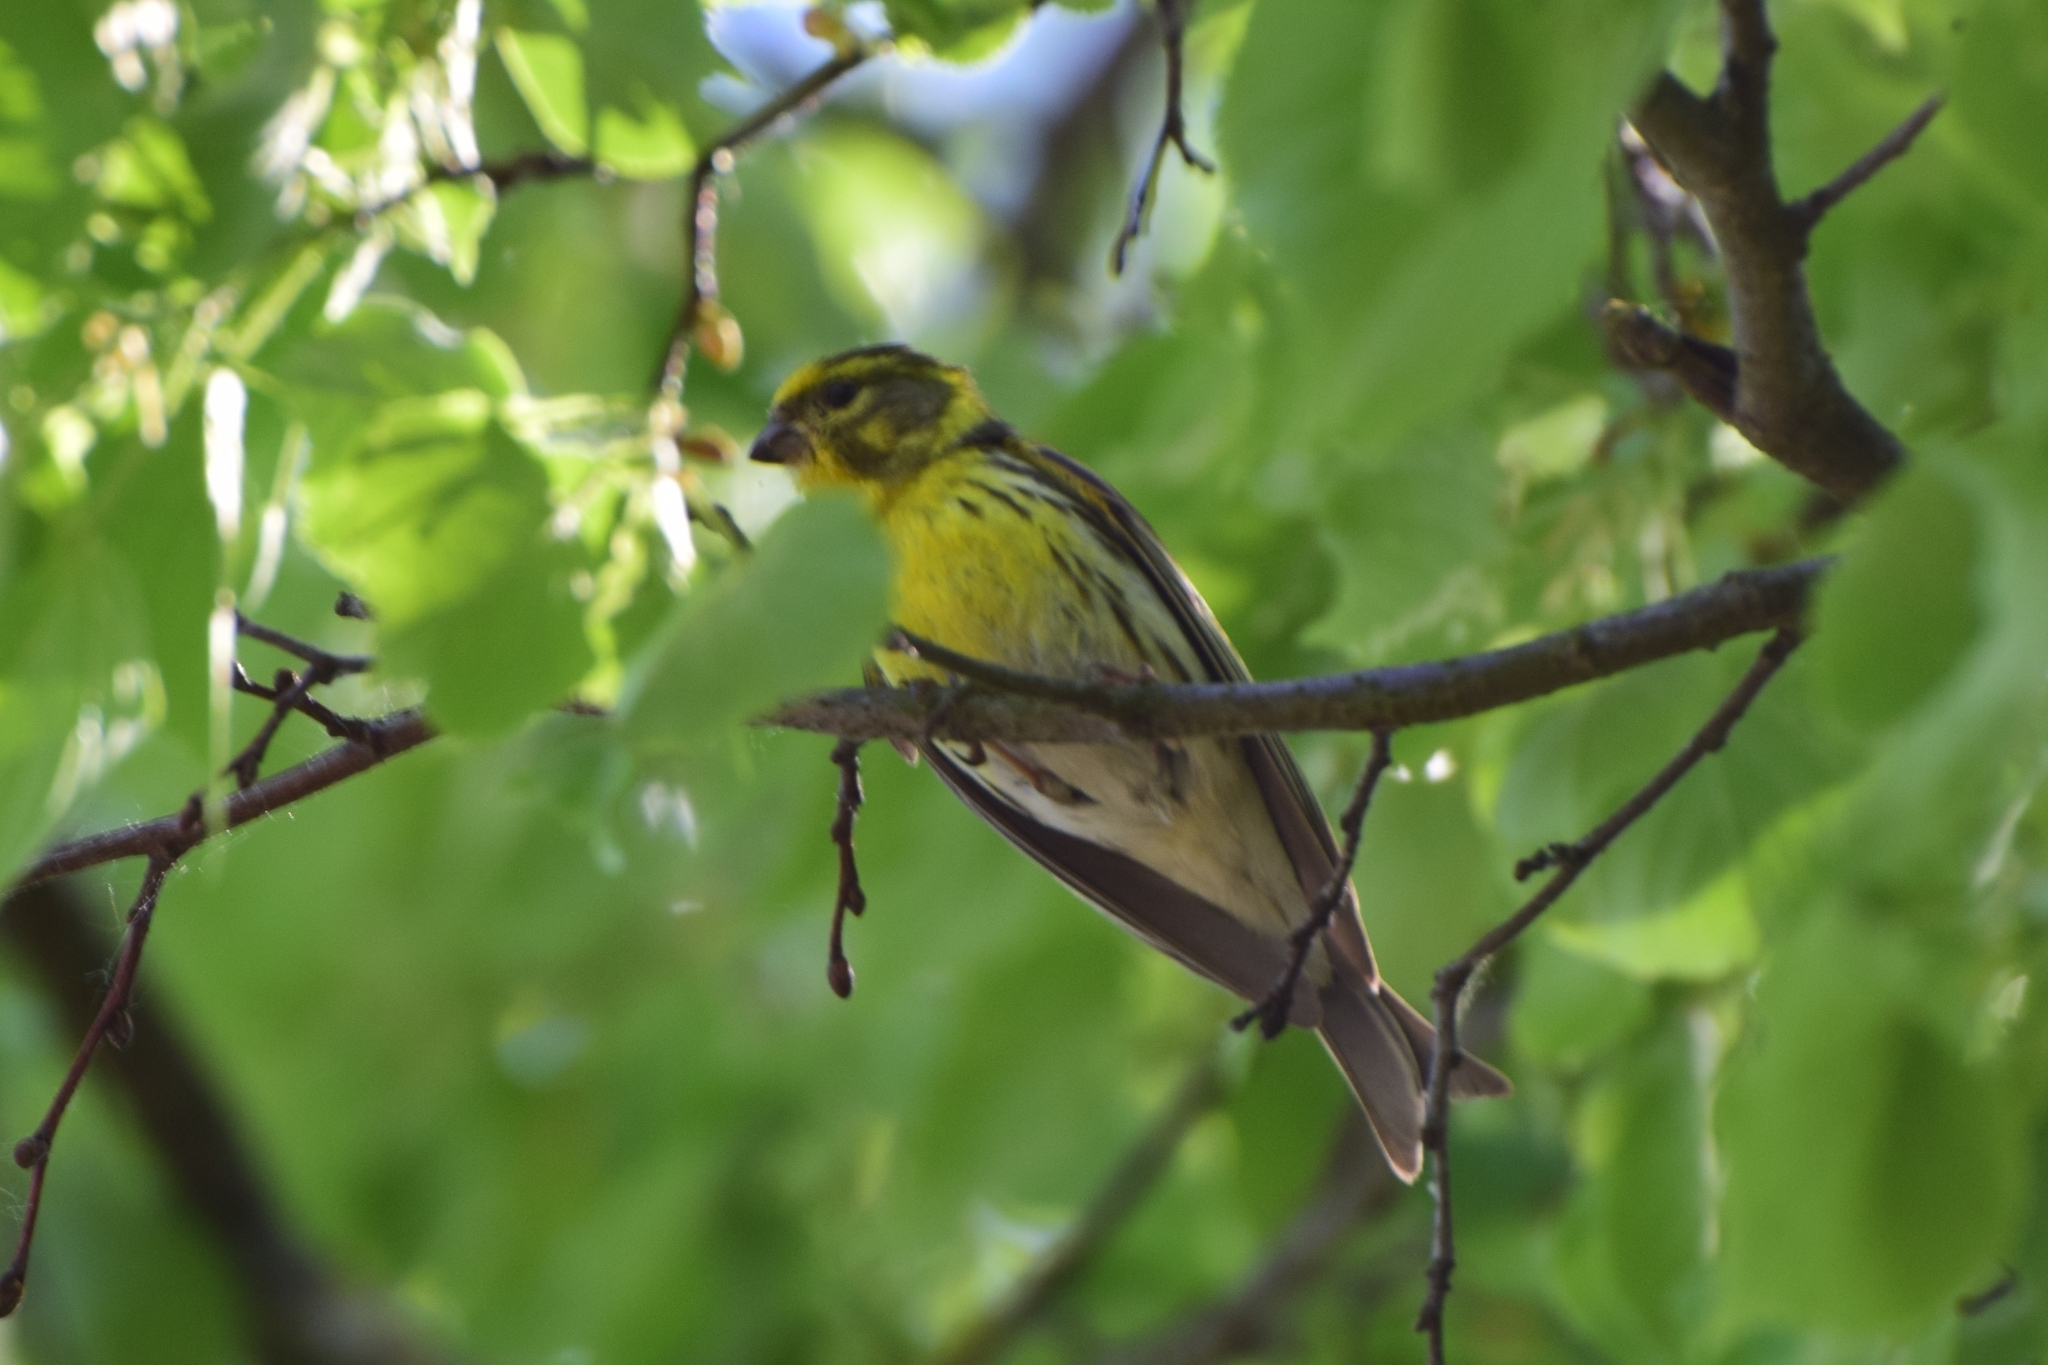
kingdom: Animalia
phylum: Chordata
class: Aves
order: Passeriformes
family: Fringillidae
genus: Serinus
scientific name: Serinus serinus
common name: European serin
